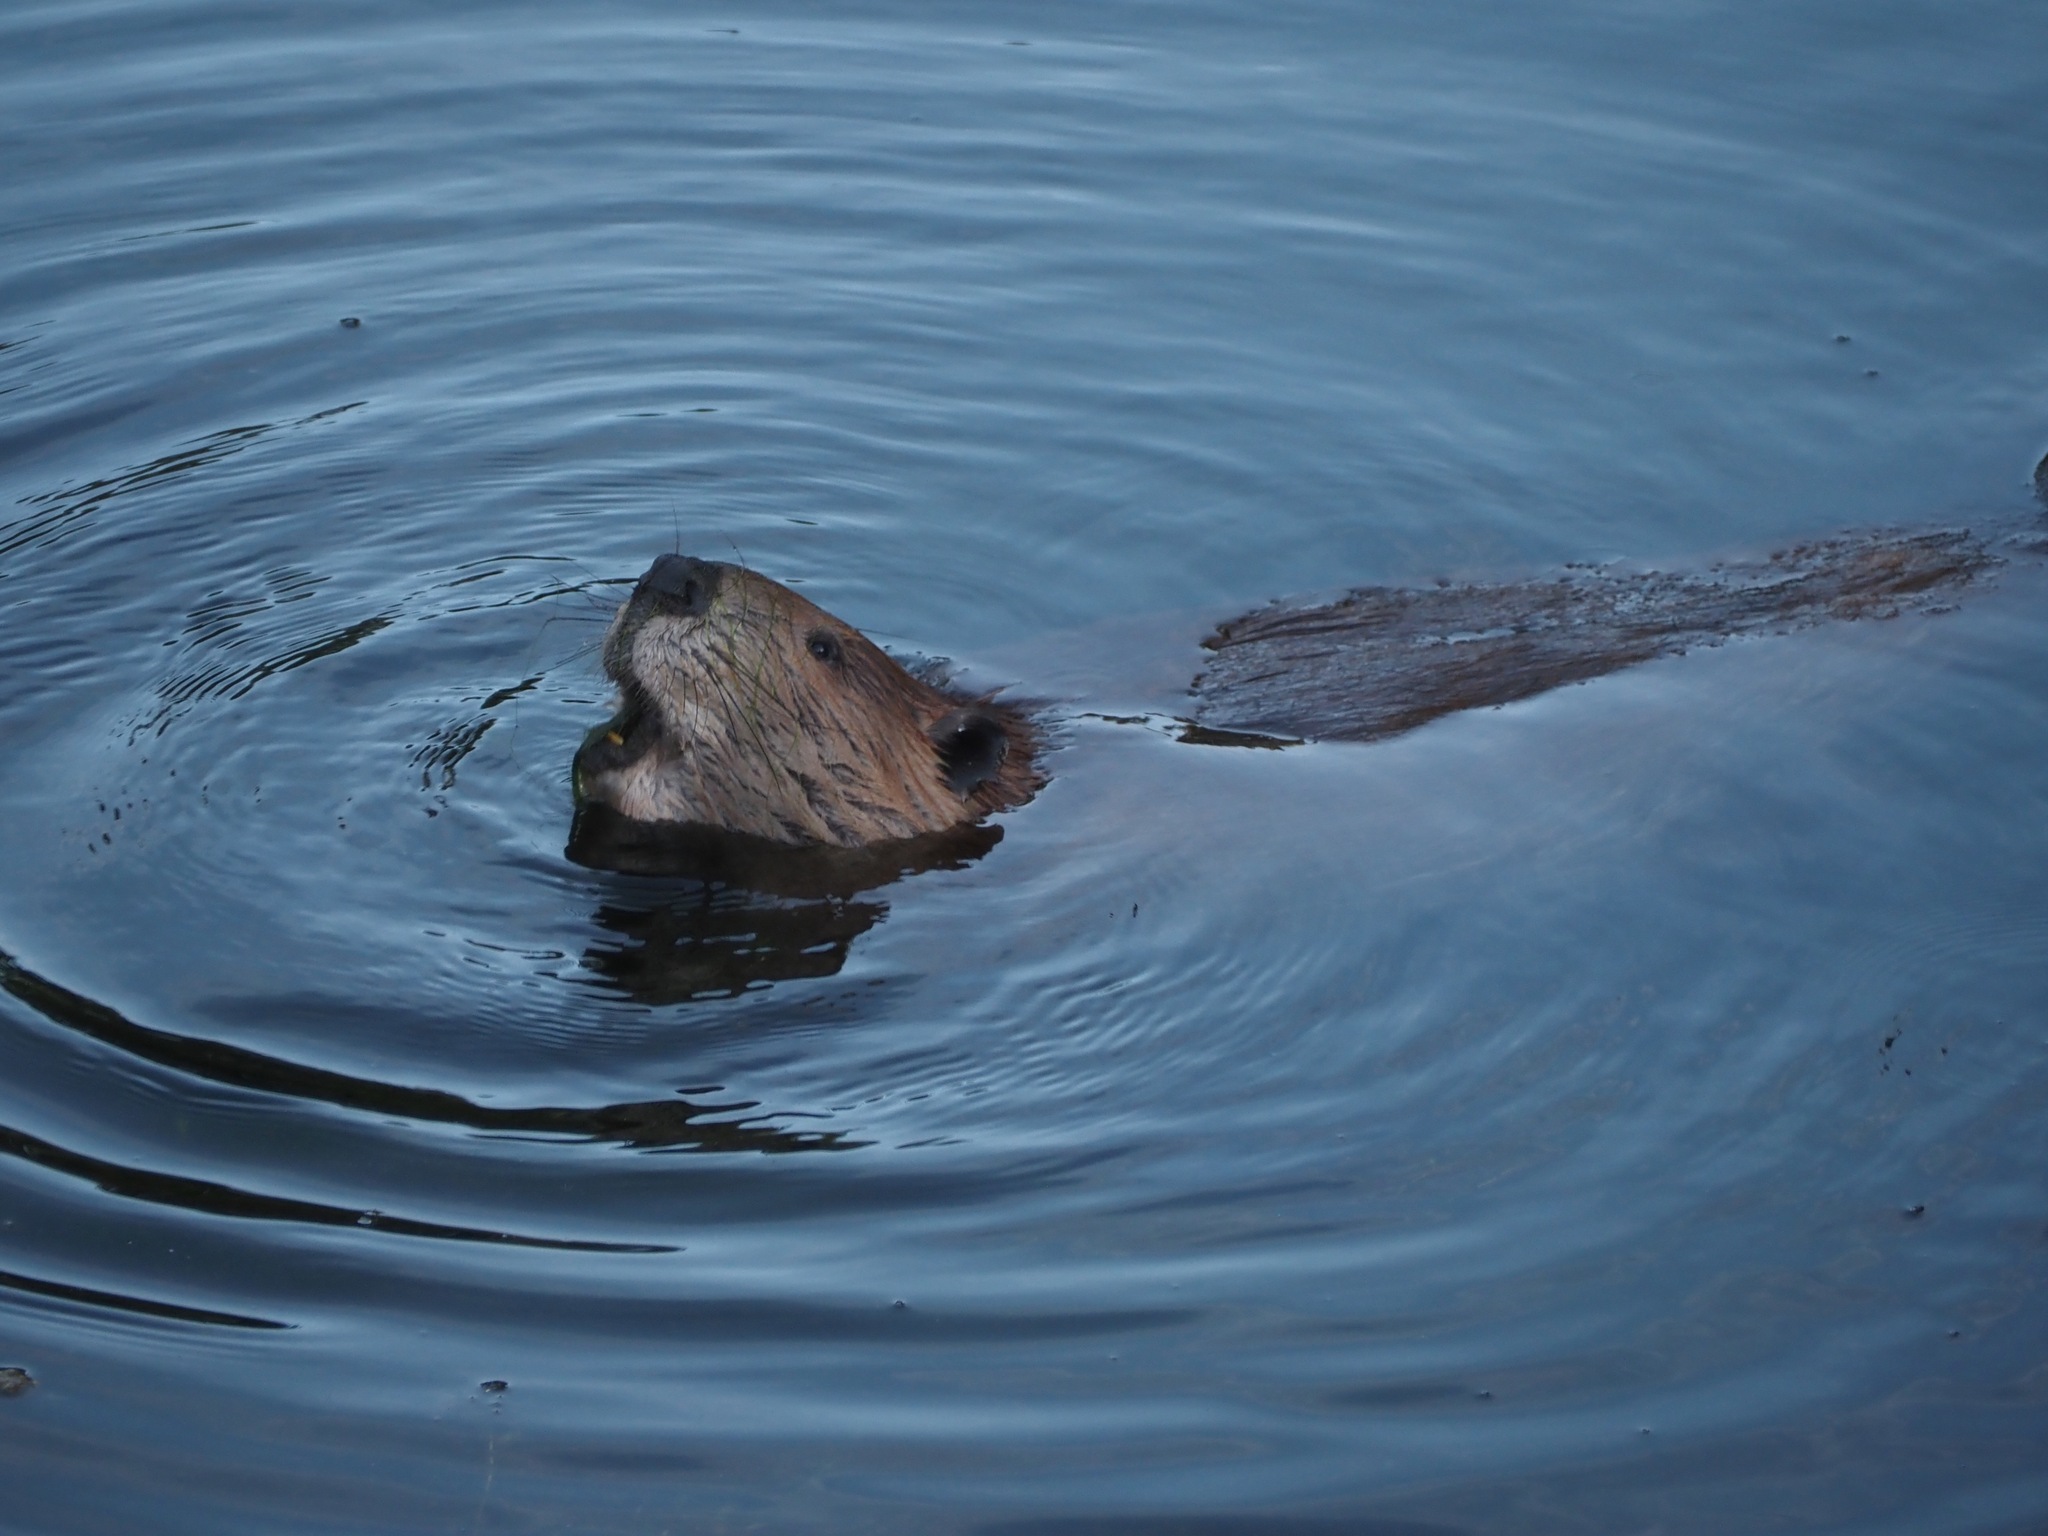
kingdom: Animalia
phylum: Chordata
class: Mammalia
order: Rodentia
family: Castoridae
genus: Castor
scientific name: Castor canadensis
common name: American beaver
